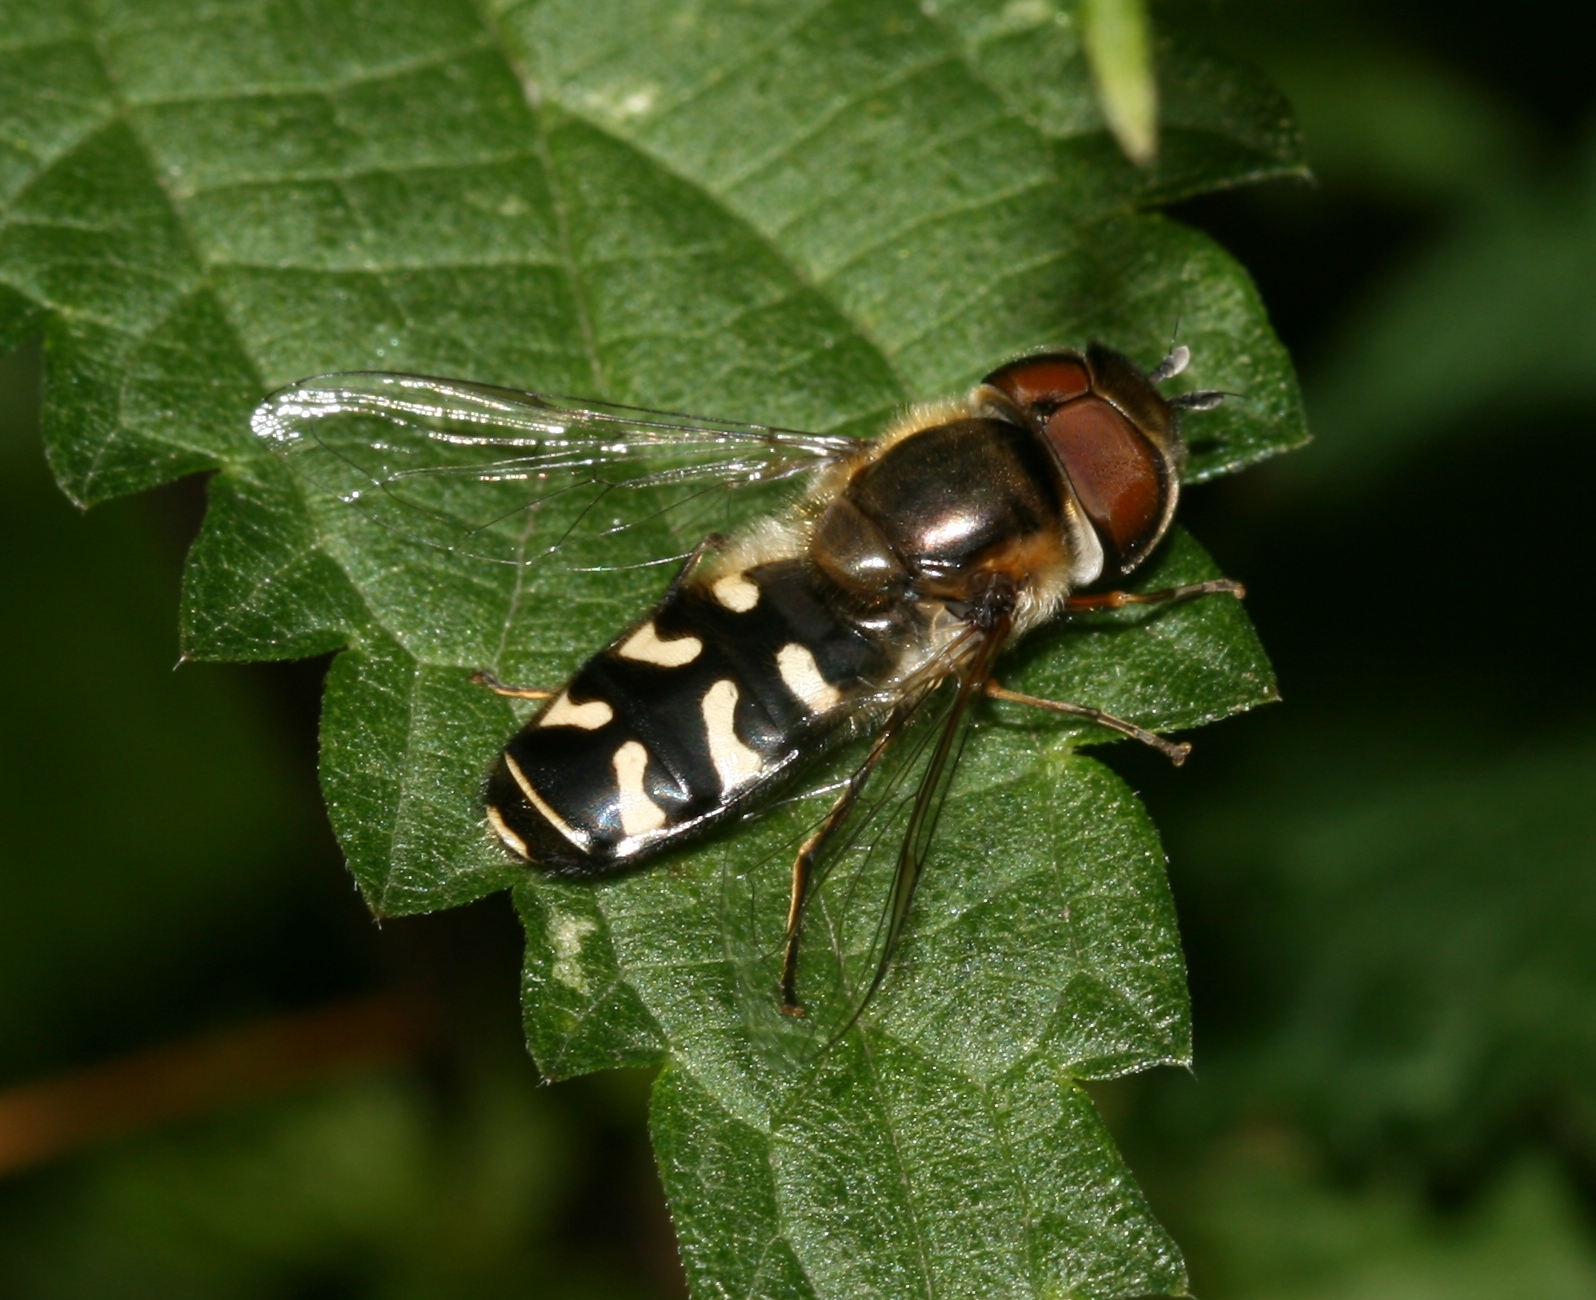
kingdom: Animalia
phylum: Arthropoda
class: Insecta
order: Diptera
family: Syrphidae
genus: Scaeva
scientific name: Scaeva pyrastri
